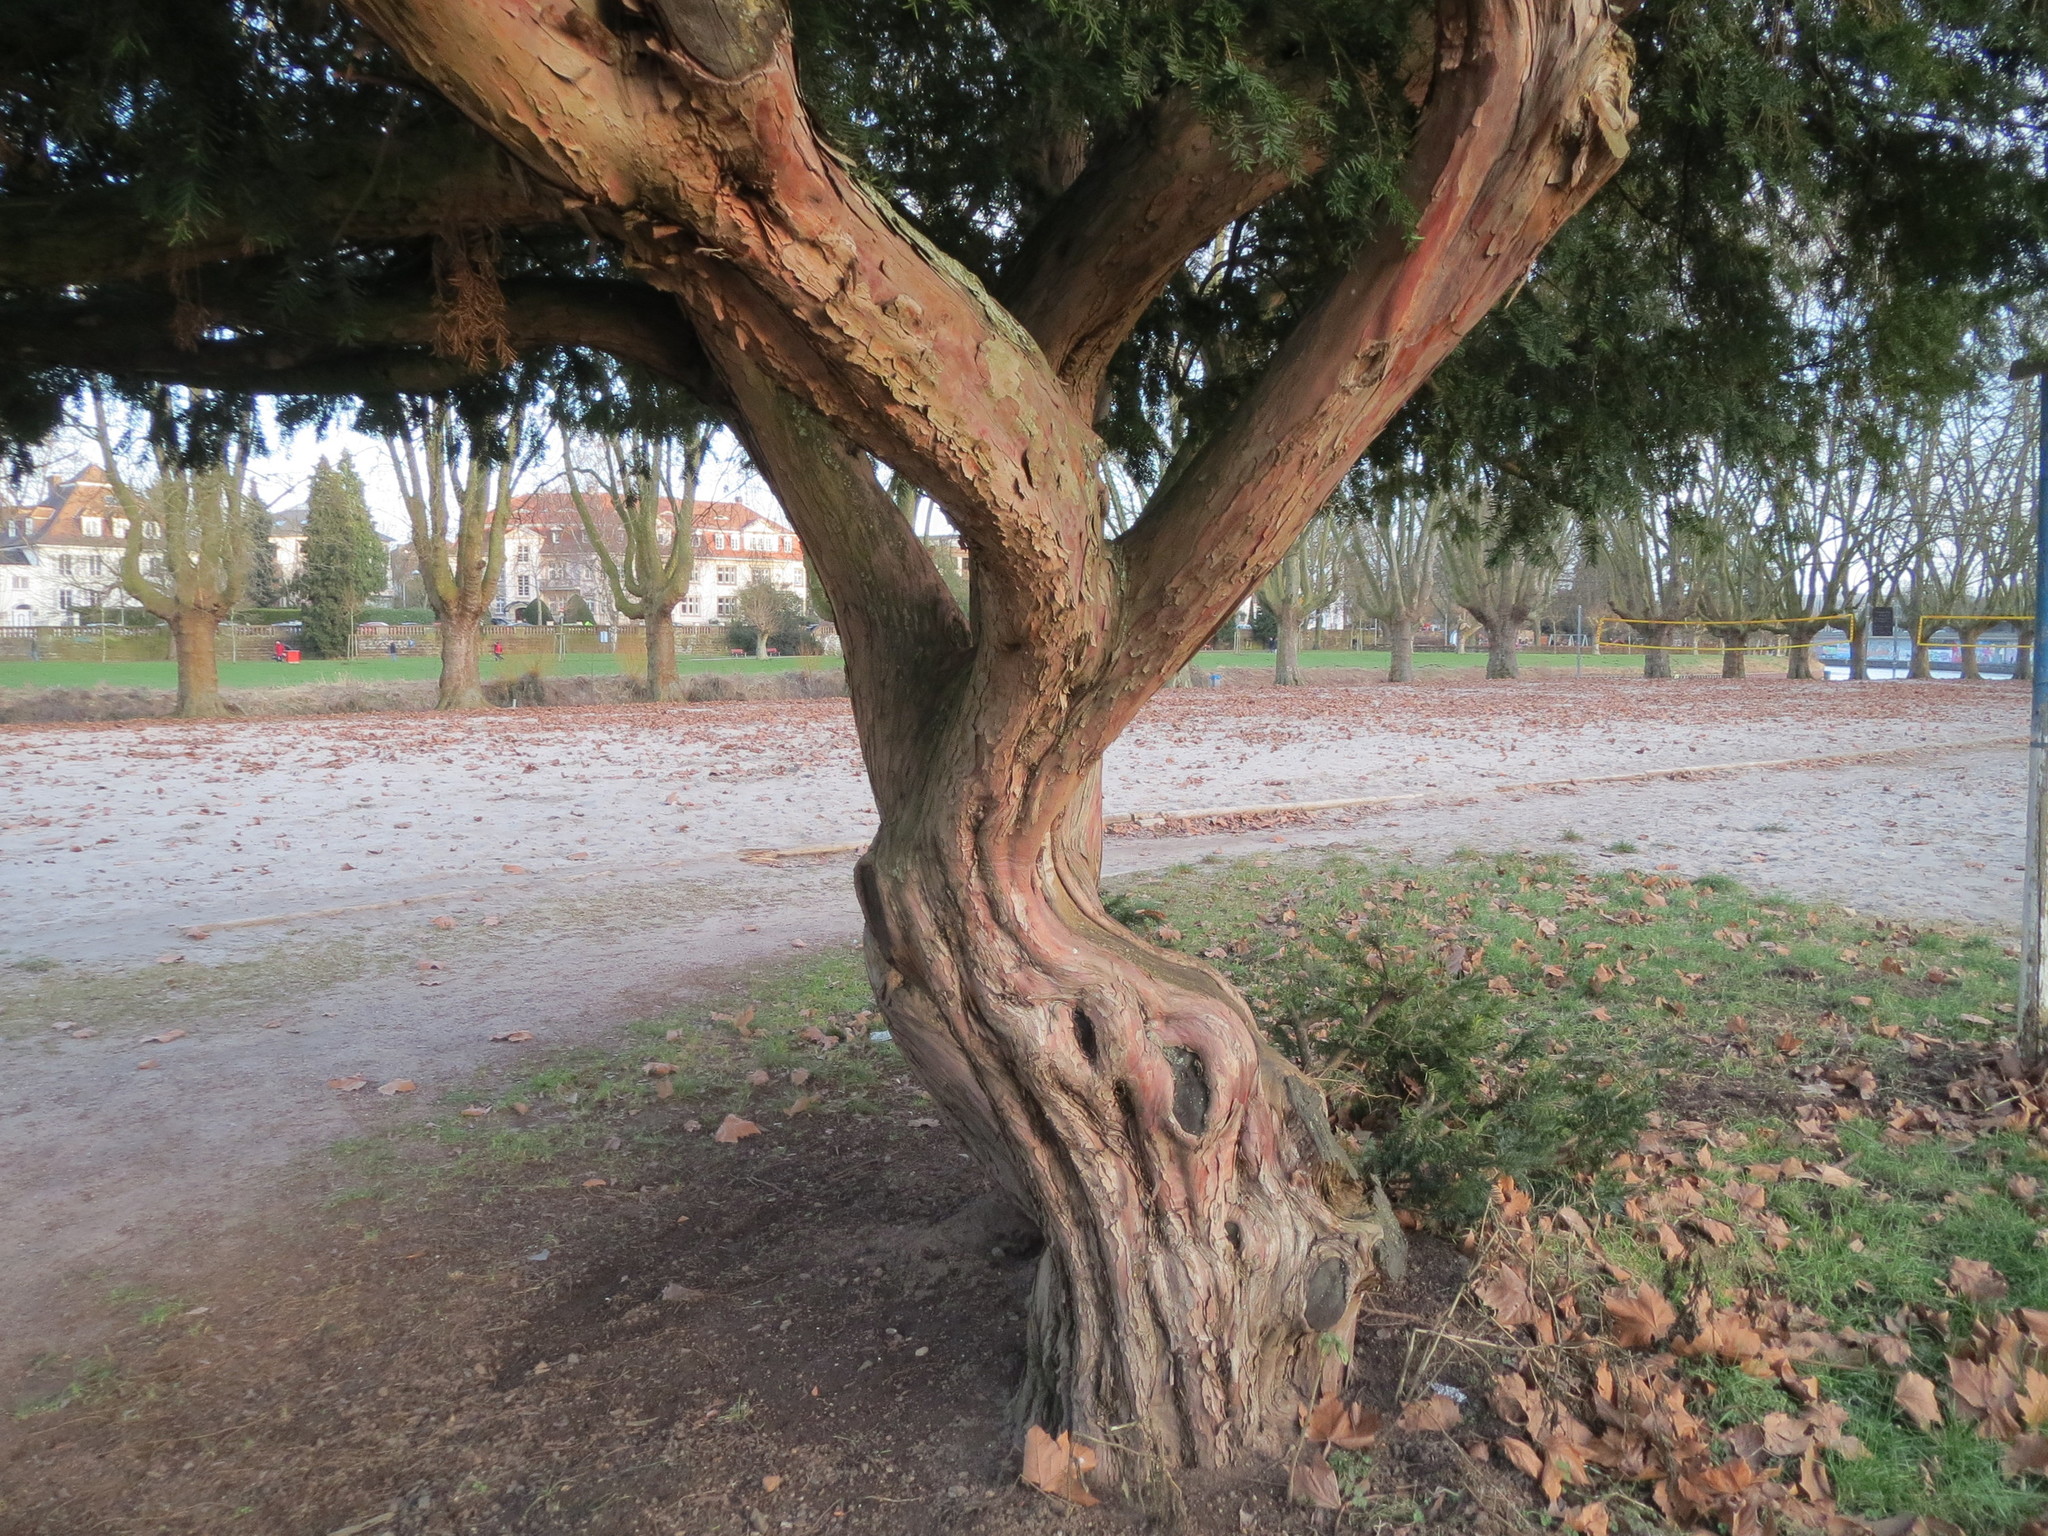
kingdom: Plantae
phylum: Tracheophyta
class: Pinopsida
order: Pinales
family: Taxaceae
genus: Taxus
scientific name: Taxus baccata
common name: Yew
